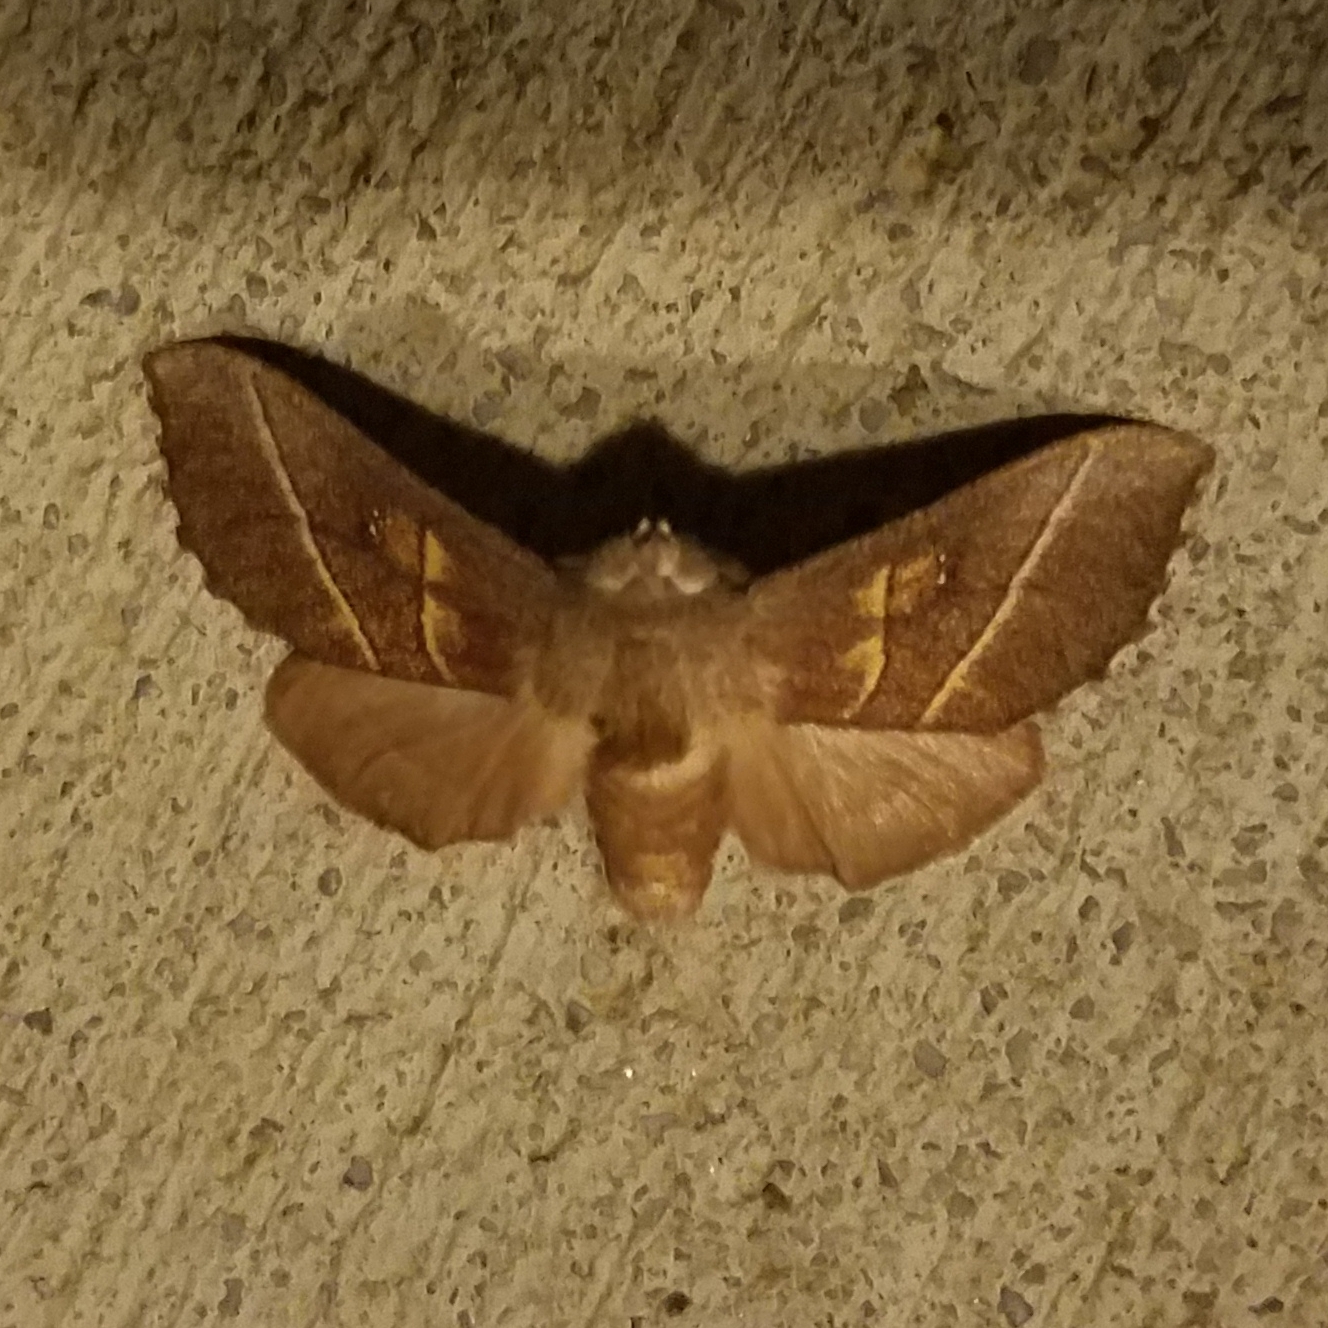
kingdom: Animalia
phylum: Arthropoda
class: Insecta
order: Lepidoptera
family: Notodontidae
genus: Nadata
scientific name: Nadata gibbosa
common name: White-dotted prominent
